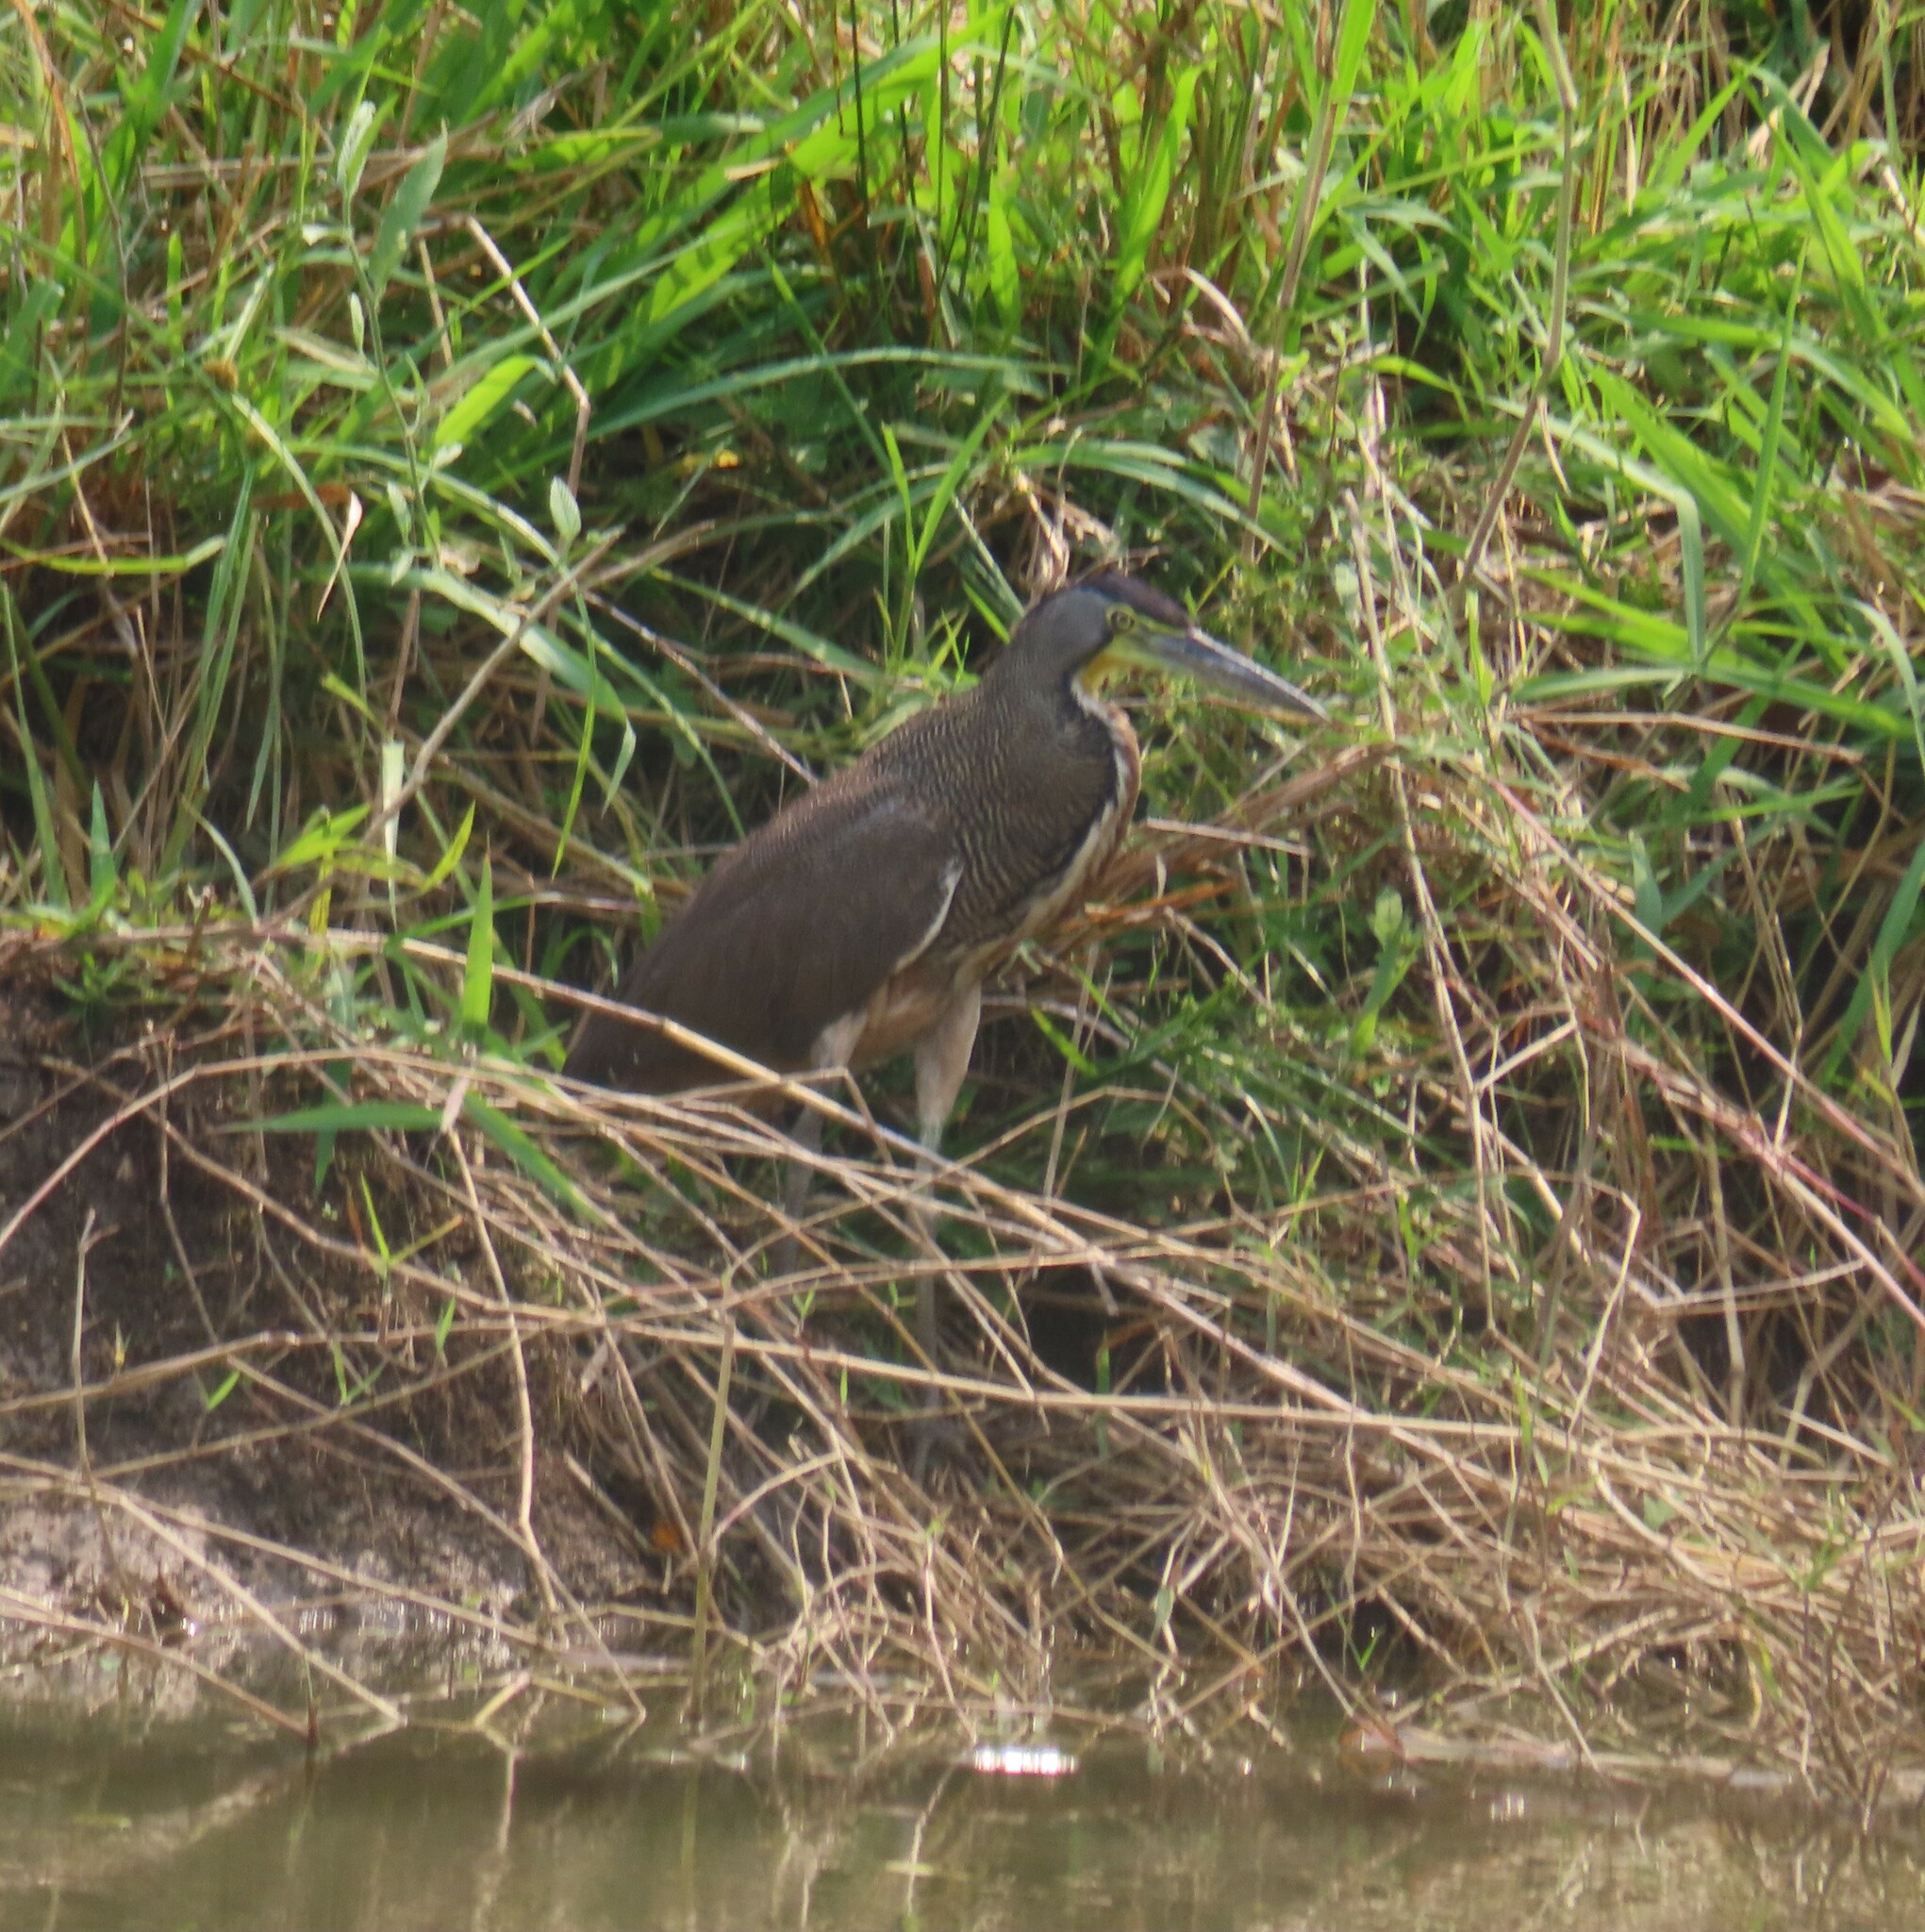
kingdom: Animalia
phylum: Chordata
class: Aves
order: Pelecaniformes
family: Ardeidae
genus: Tigrisoma
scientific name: Tigrisoma mexicanum
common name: Bare-throated tiger-heron
